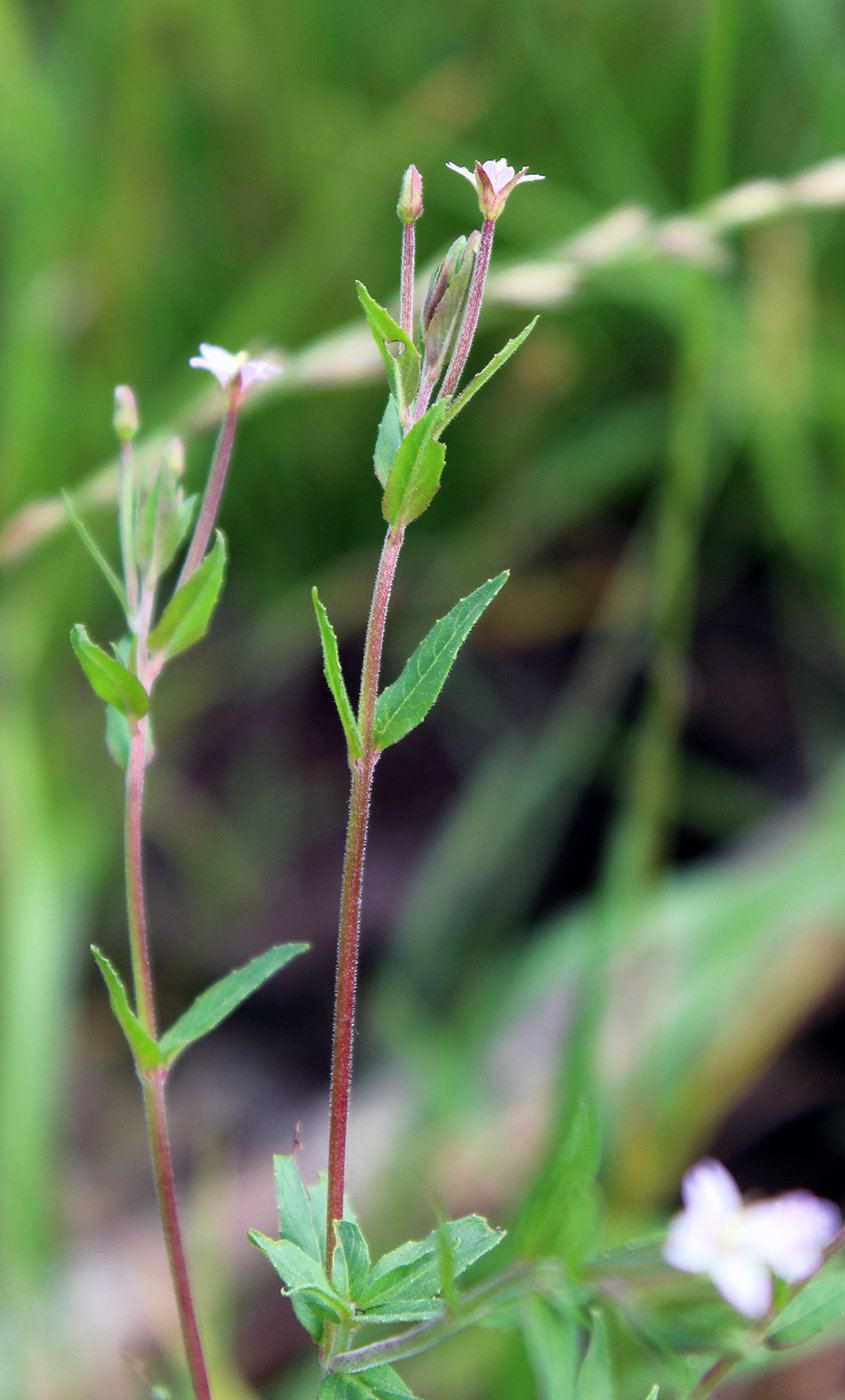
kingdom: Plantae
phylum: Tracheophyta
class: Magnoliopsida
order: Myrtales
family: Onagraceae
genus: Epilobium
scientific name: Epilobium ciliatum
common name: American willowherb
